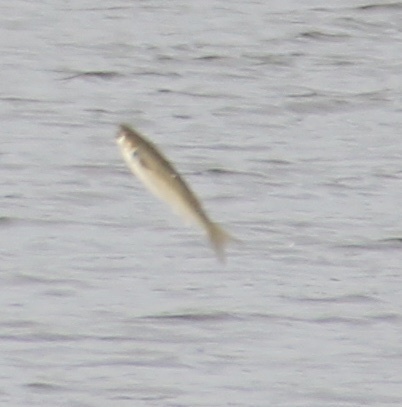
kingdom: Animalia
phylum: Chordata
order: Mugiliformes
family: Mugilidae
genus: Mugil
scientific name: Mugil cephalus
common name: Grey mullet
